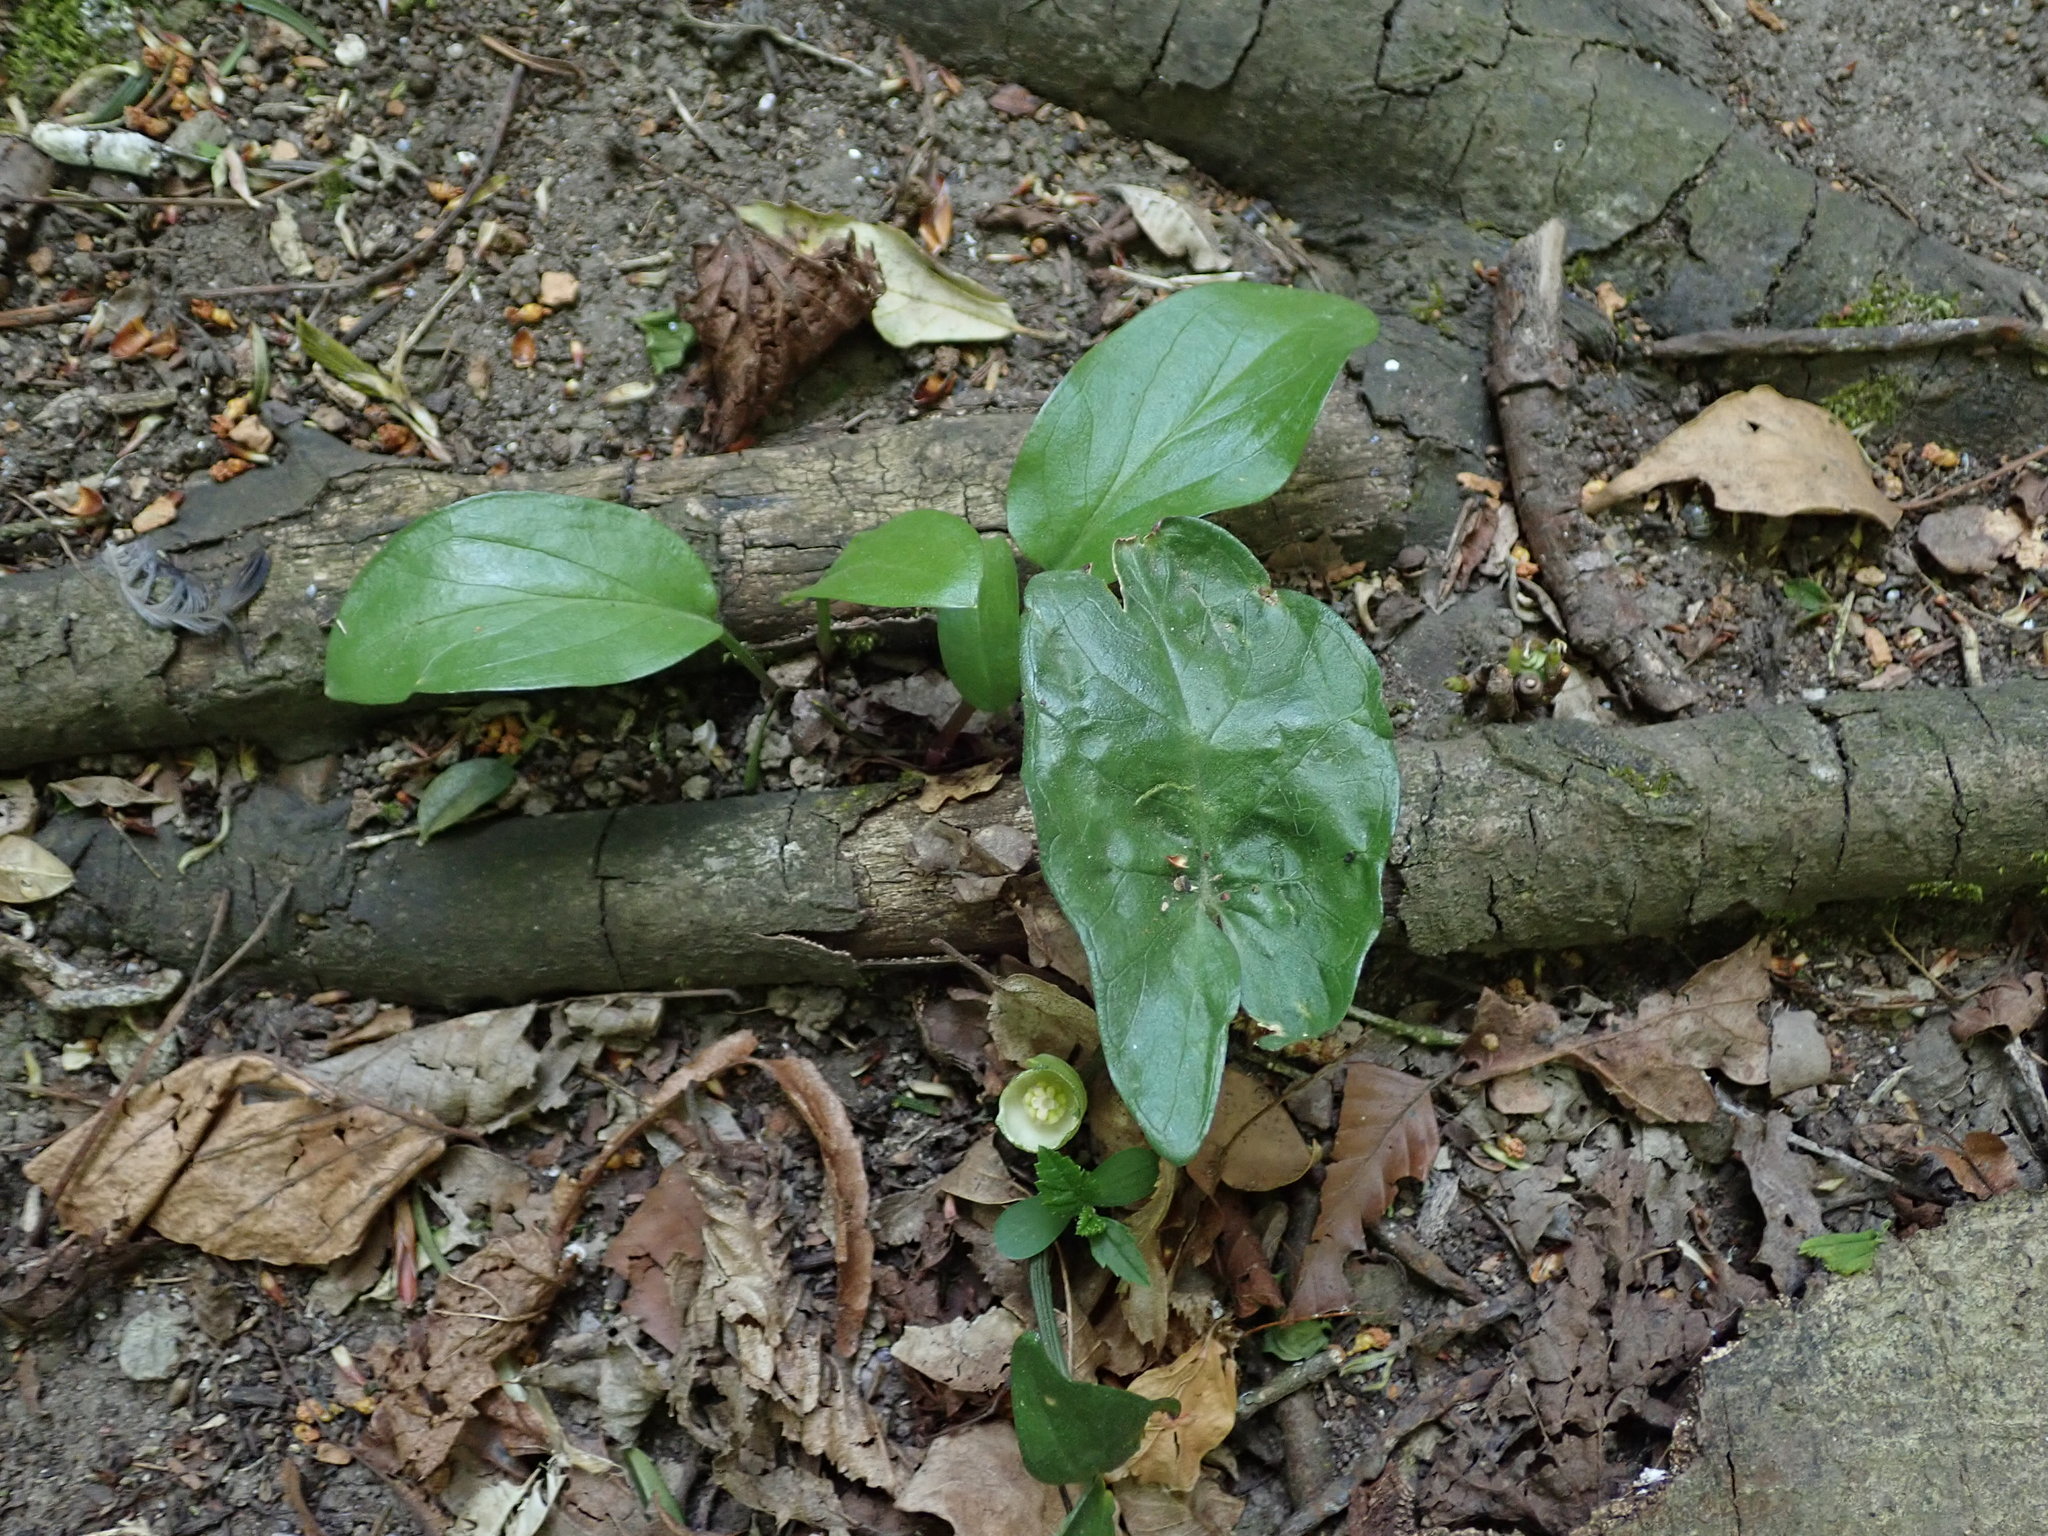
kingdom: Plantae
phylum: Tracheophyta
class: Liliopsida
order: Alismatales
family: Araceae
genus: Arum
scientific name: Arum maculatum
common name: Lords-and-ladies
